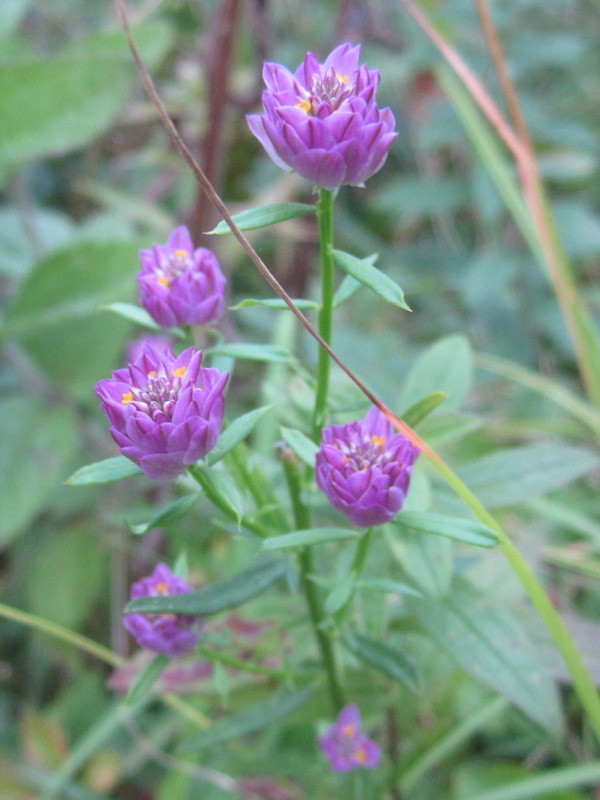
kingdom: Plantae
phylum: Tracheophyta
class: Magnoliopsida
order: Fabales
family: Polygalaceae
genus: Polygala
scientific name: Polygala sanguinea
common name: Blood milkwort
